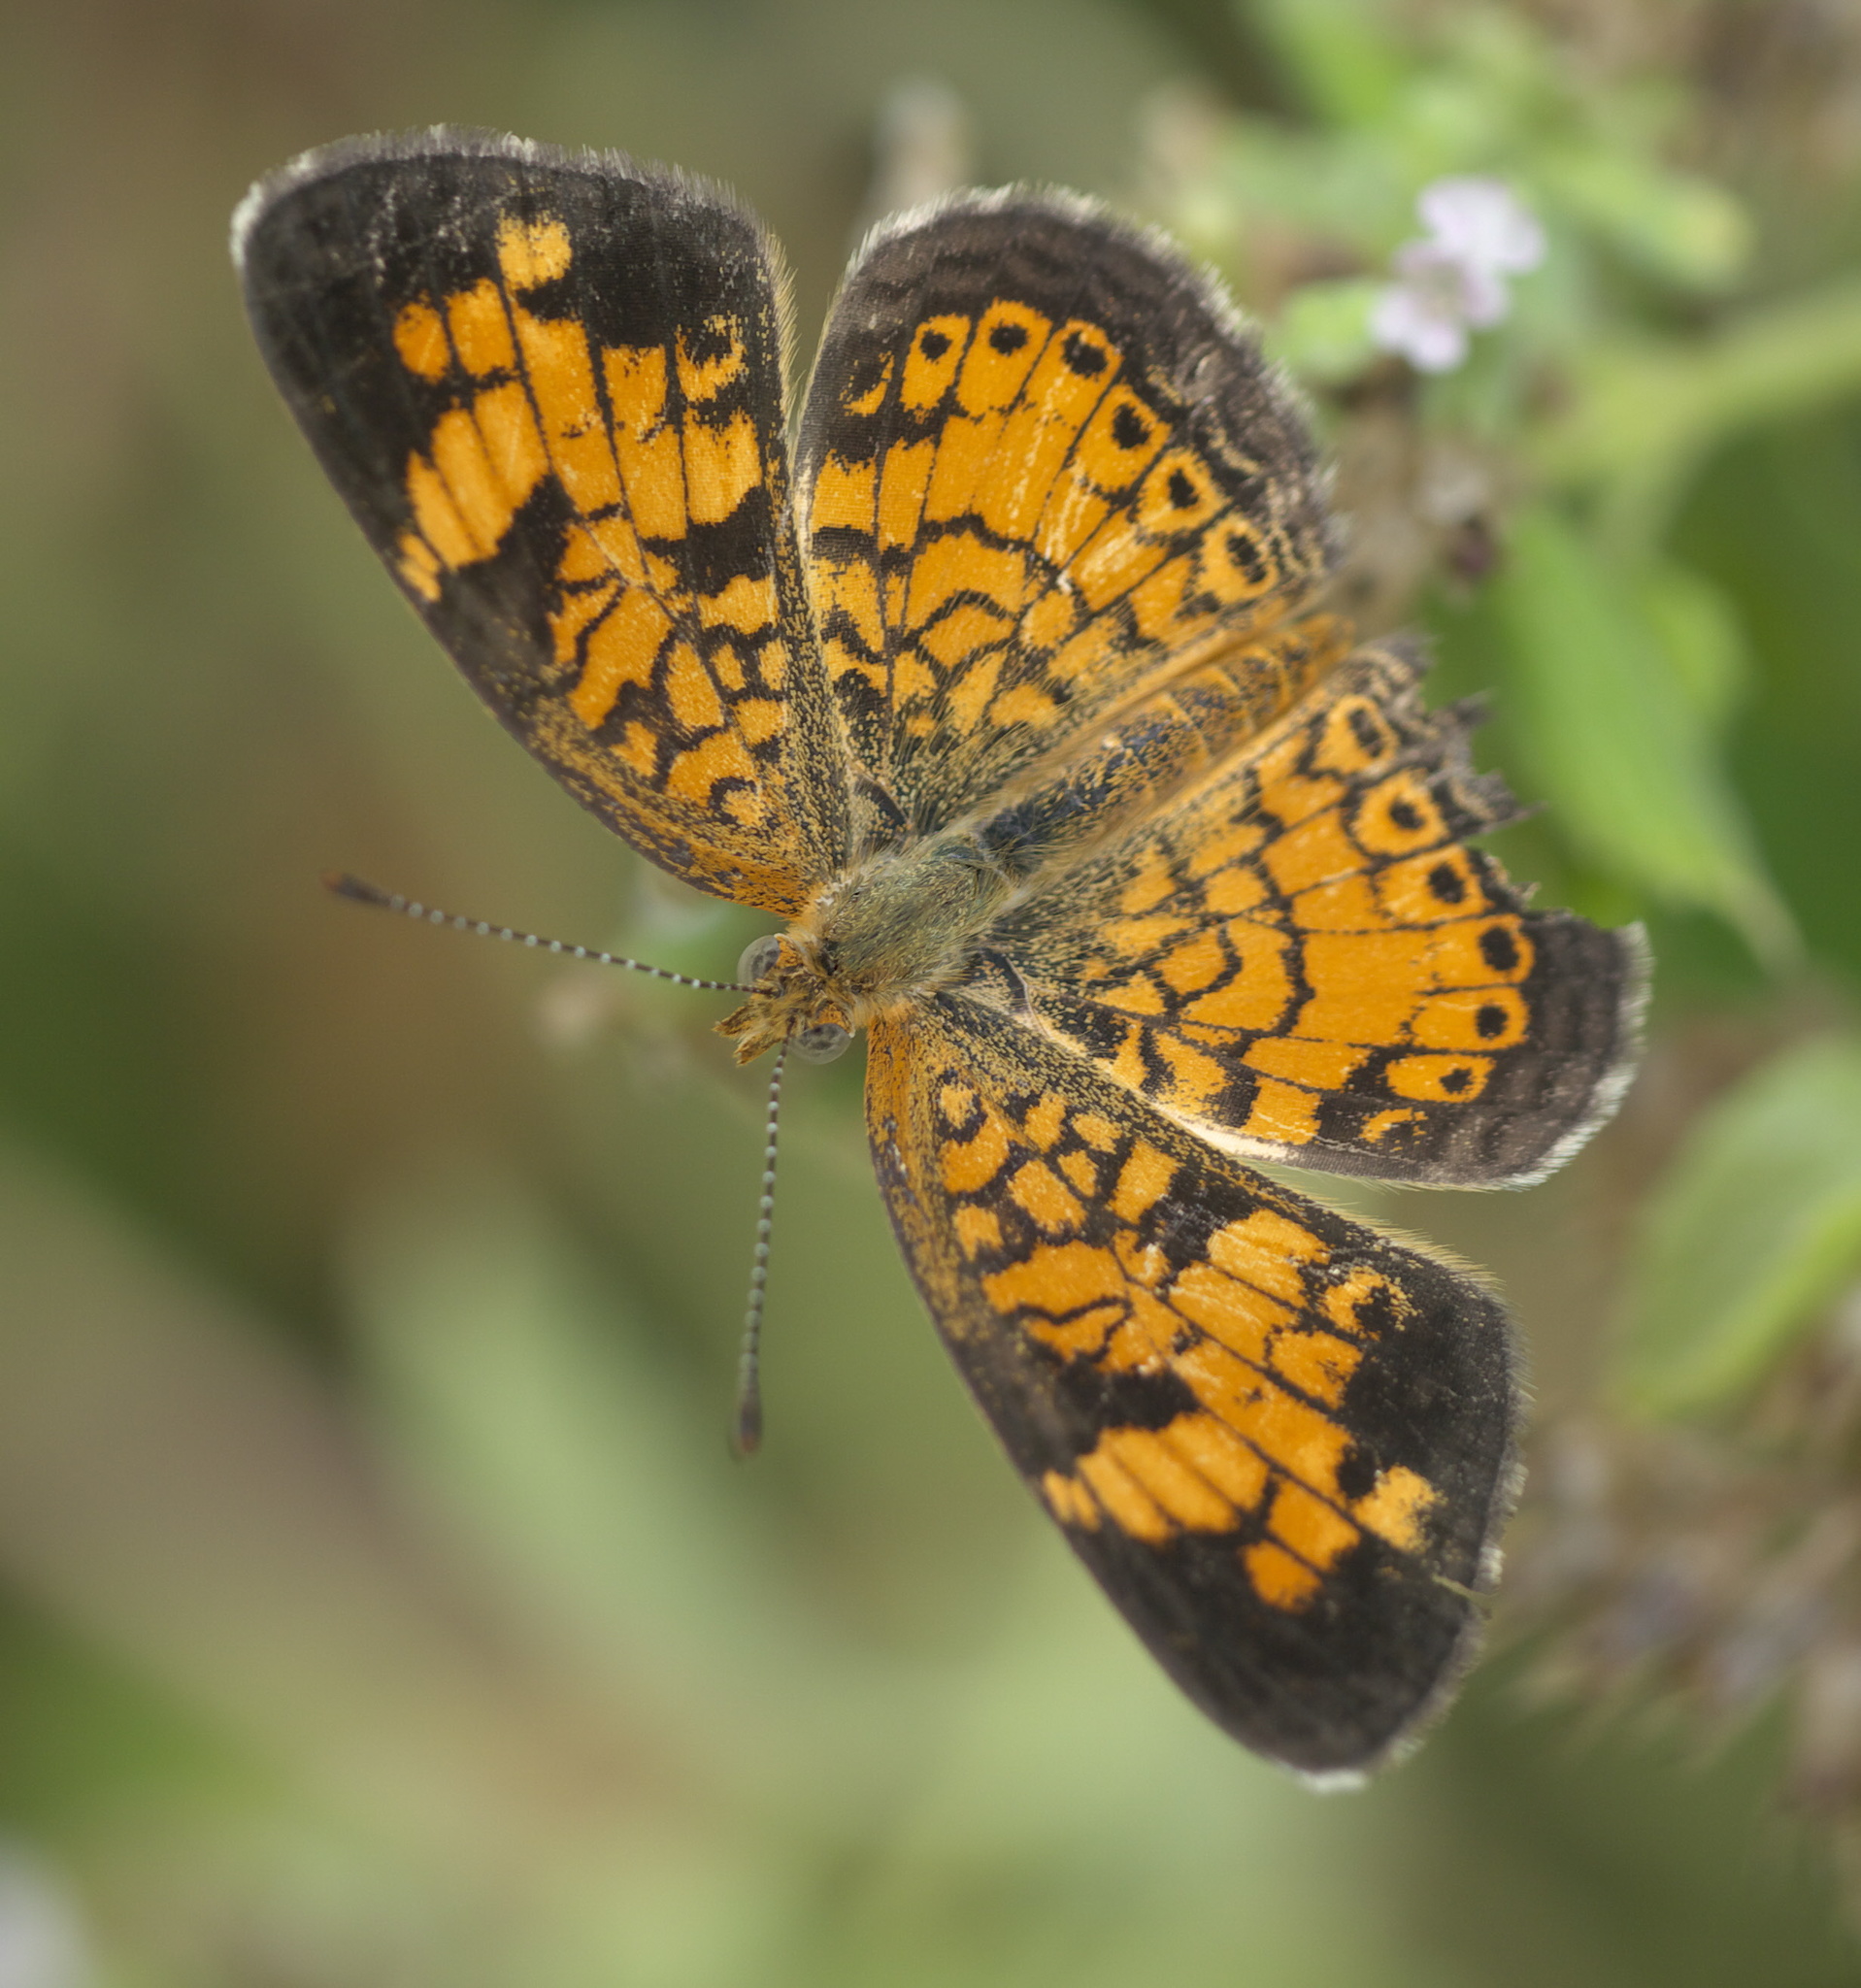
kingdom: Animalia
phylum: Arthropoda
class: Insecta
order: Lepidoptera
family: Nymphalidae
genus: Phyciodes
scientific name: Phyciodes tharos
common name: Pearl crescent
